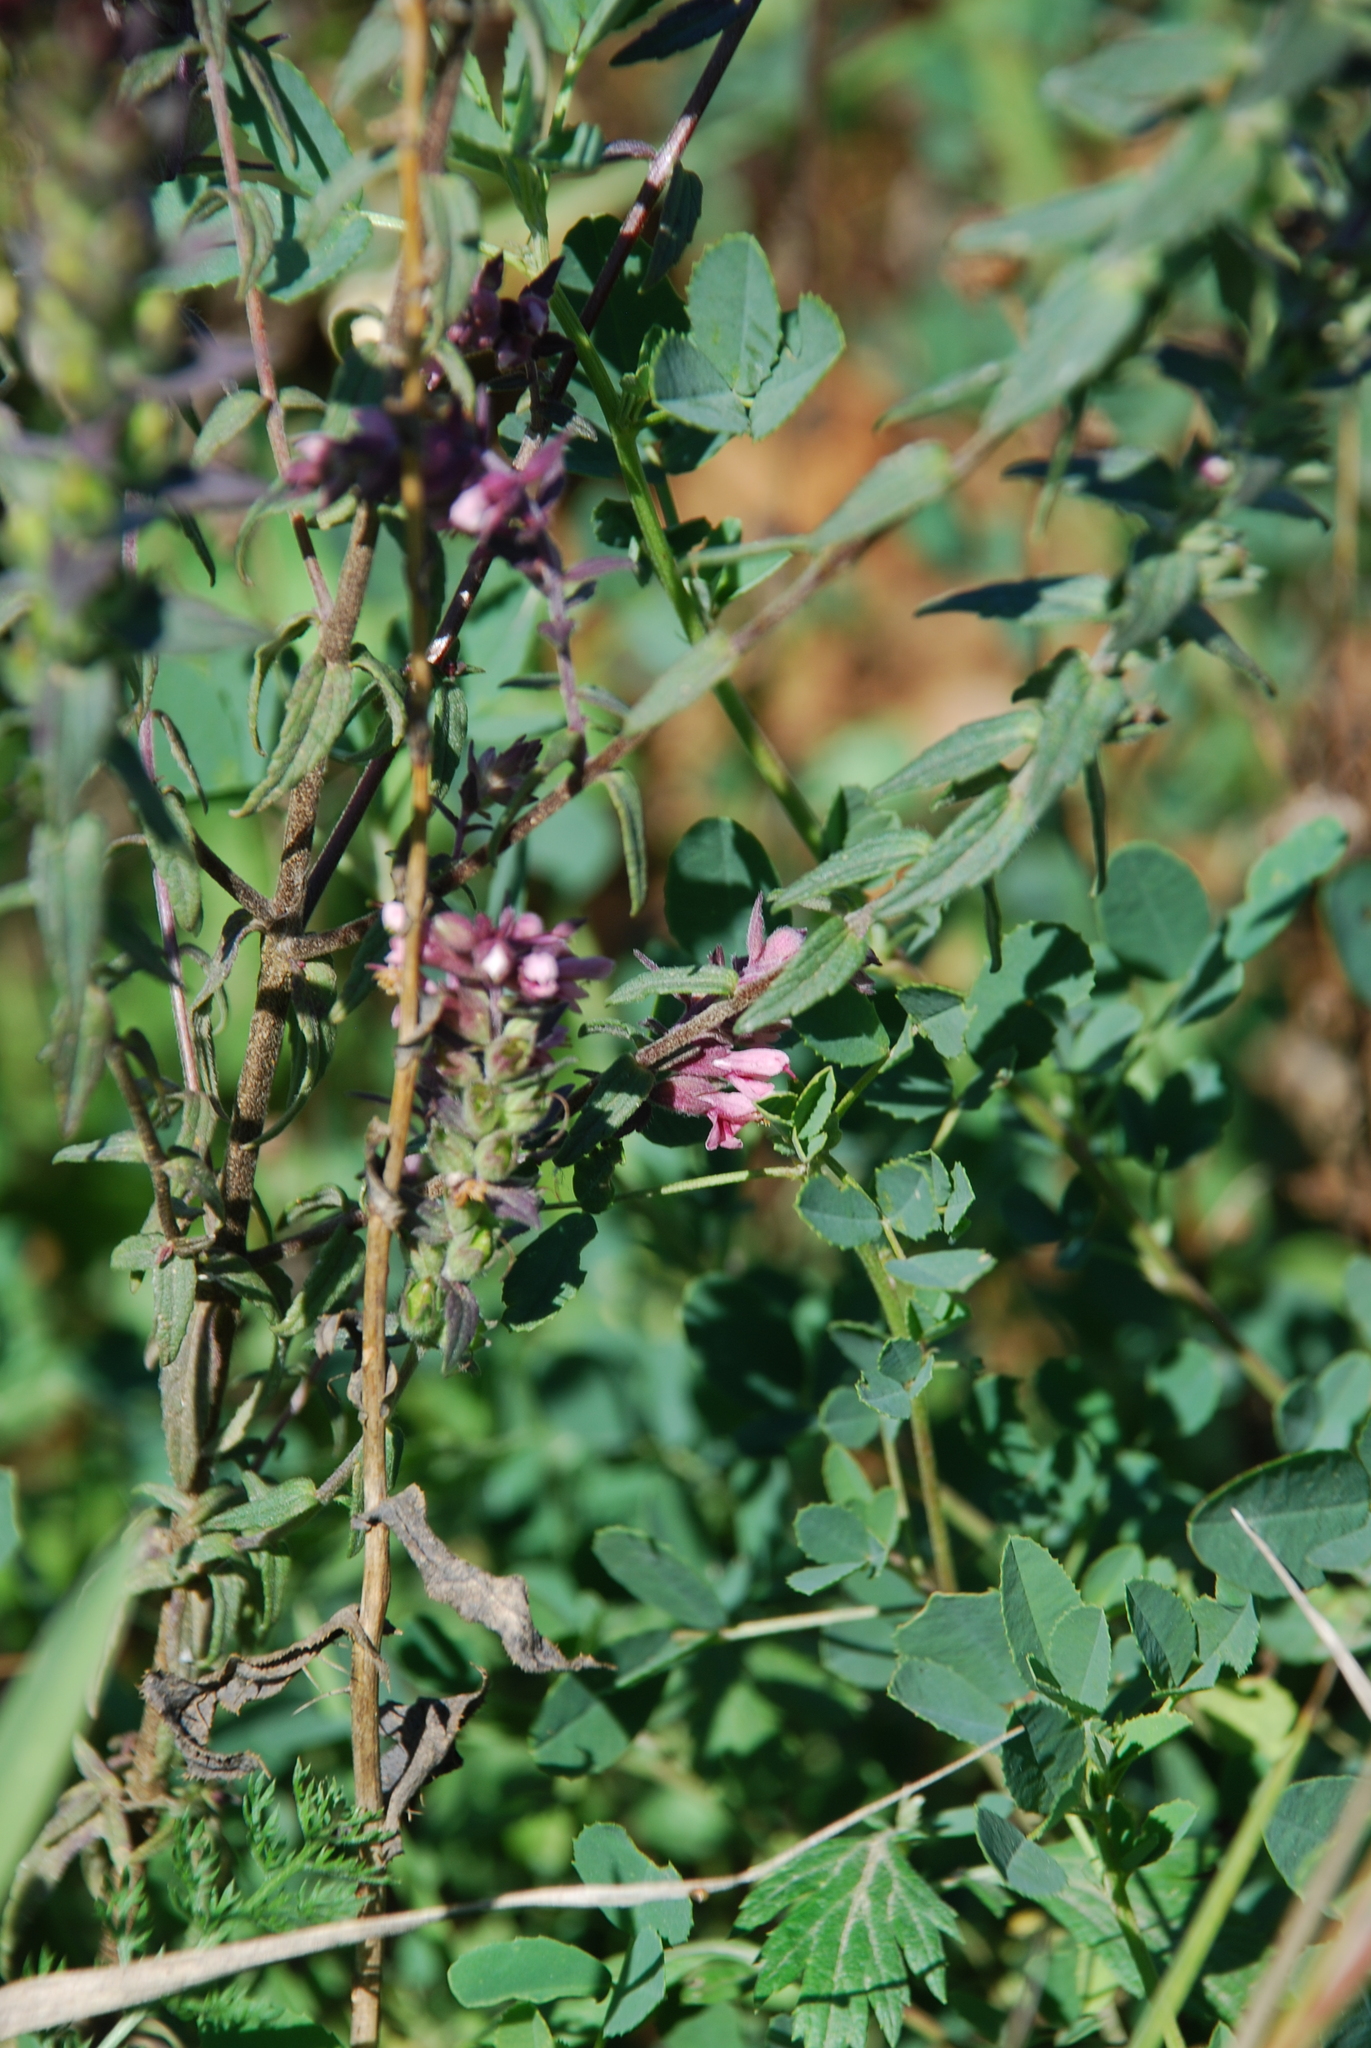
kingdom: Plantae
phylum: Tracheophyta
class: Magnoliopsida
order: Lamiales
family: Orobanchaceae
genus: Odontites
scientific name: Odontites vulgaris
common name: Broomrape
